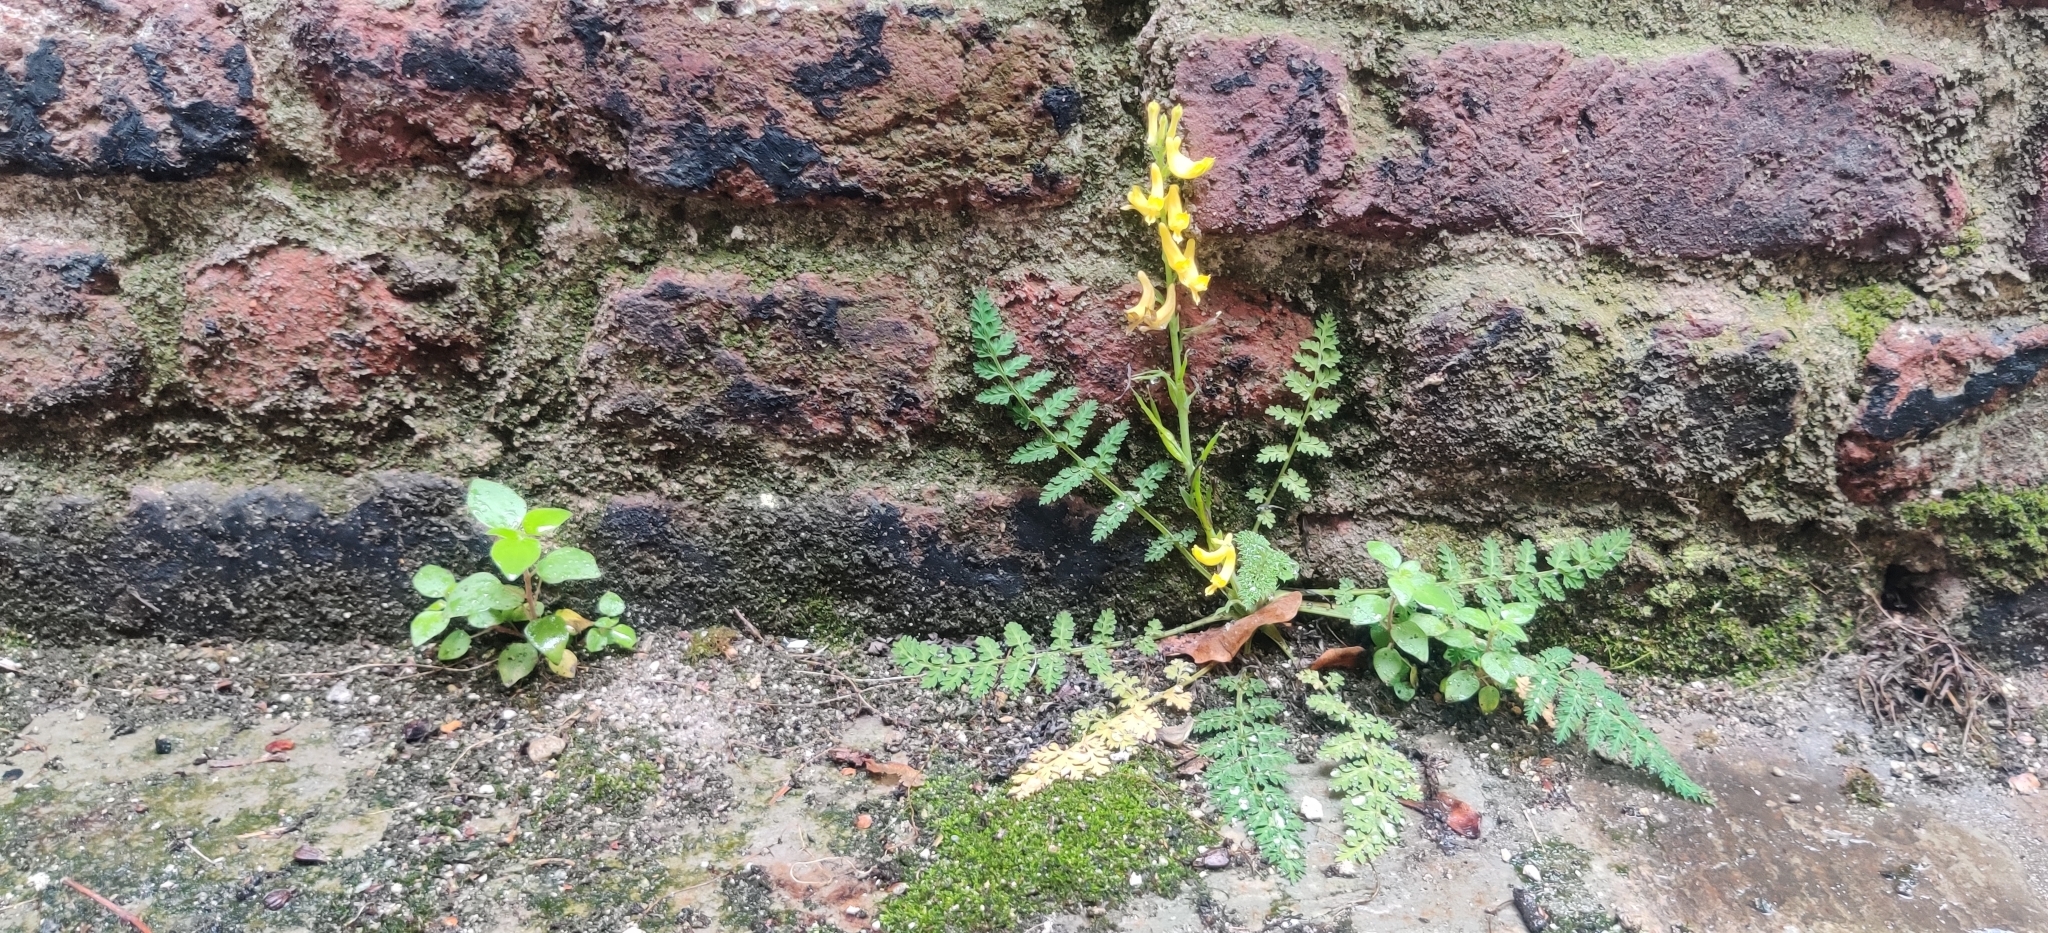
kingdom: Plantae
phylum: Tracheophyta
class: Magnoliopsida
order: Ranunculales
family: Papaveraceae
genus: Corydalis
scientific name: Corydalis cheilanthifolia
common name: Fern-leaved corydalis
